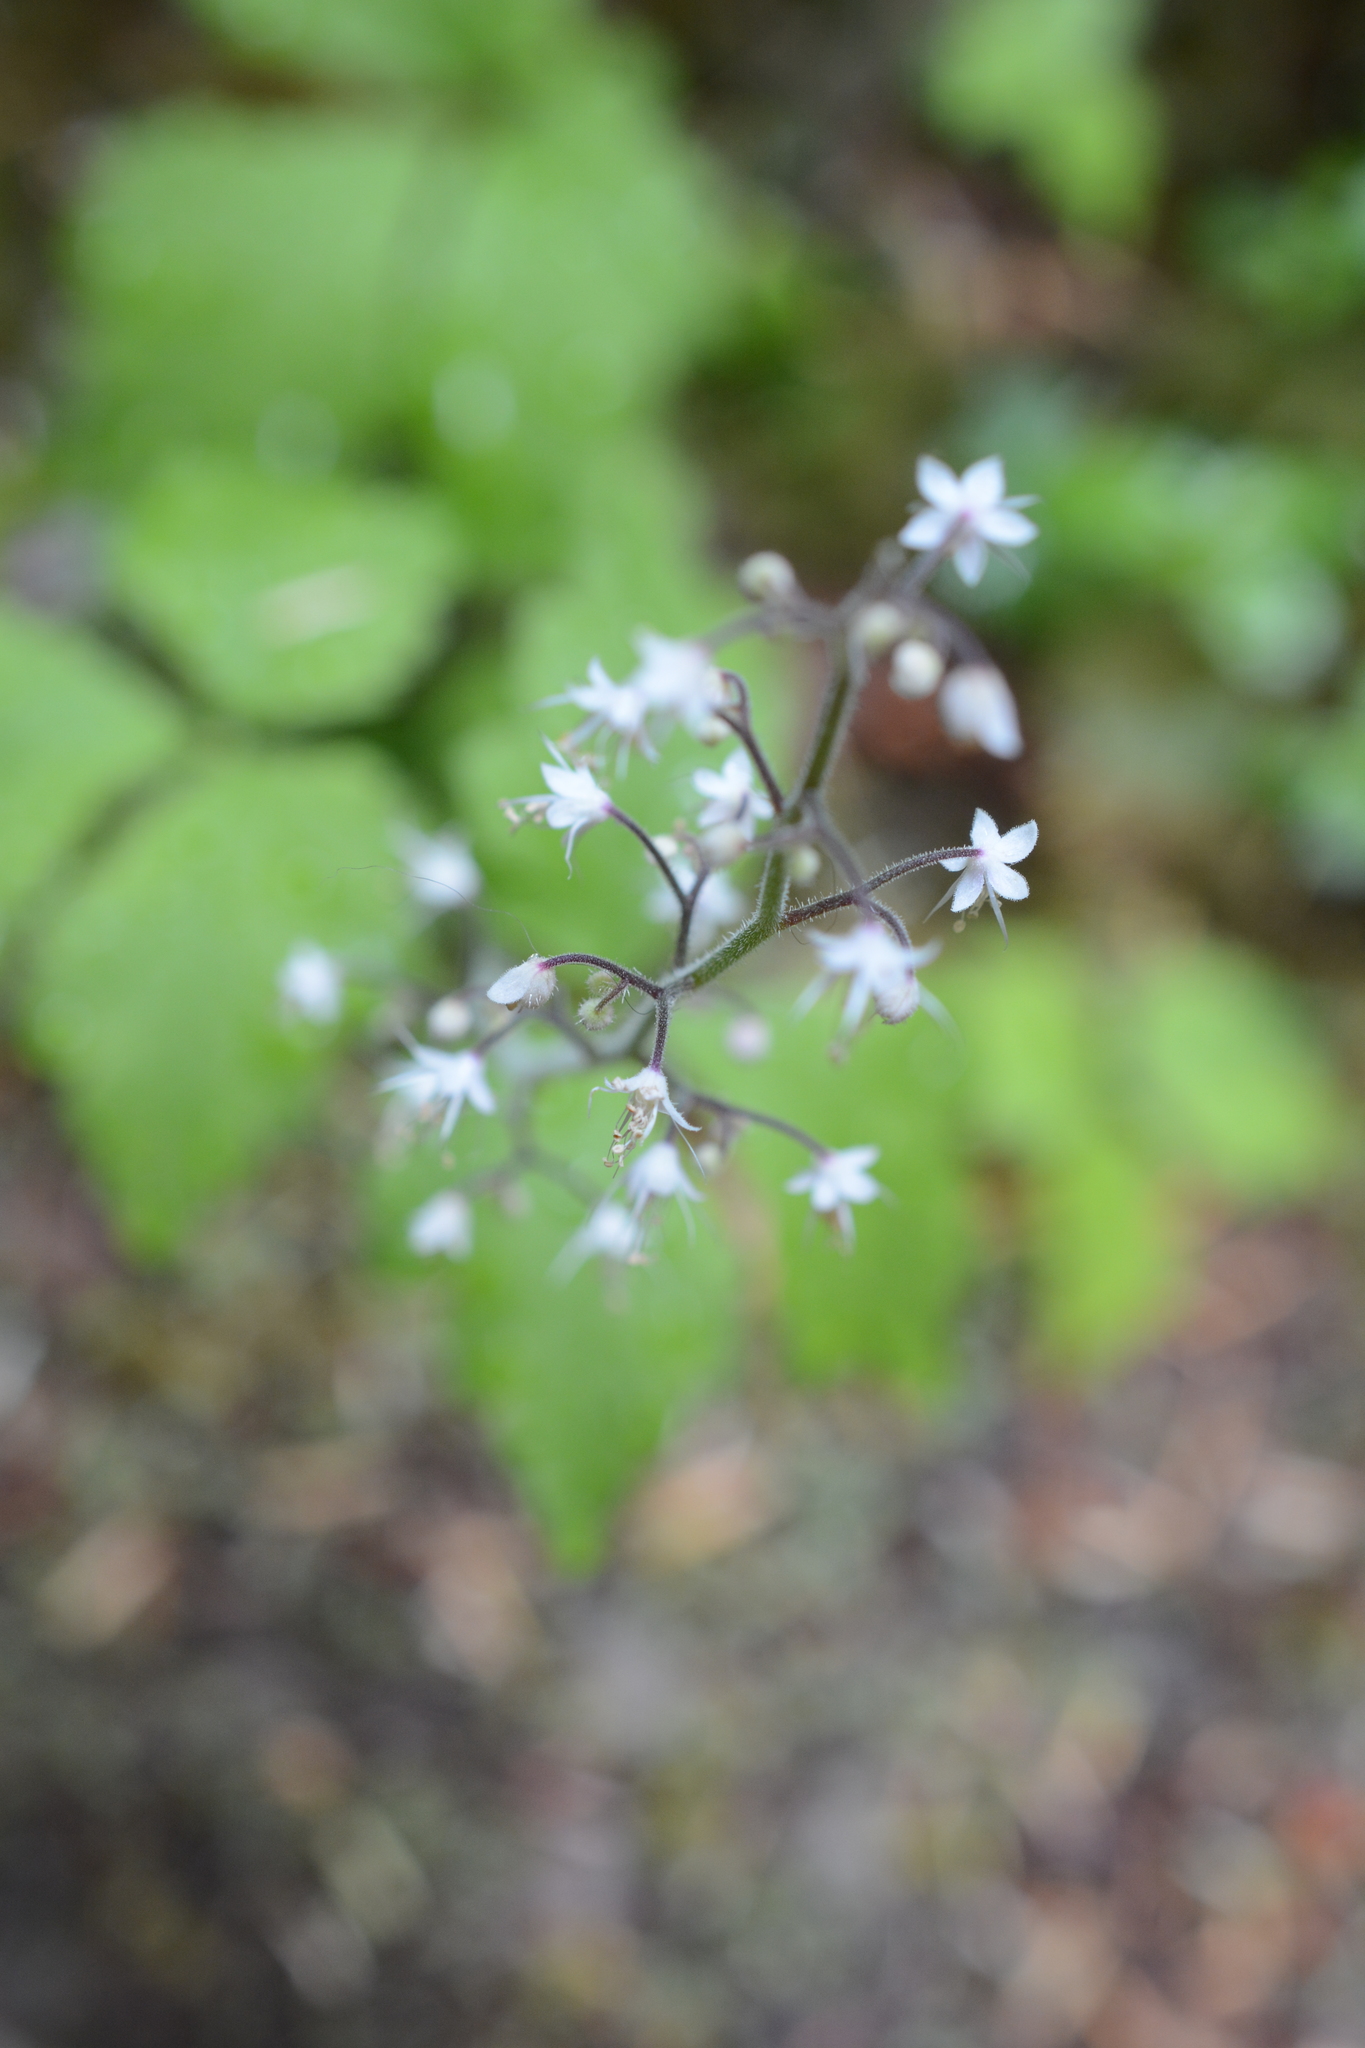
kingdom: Plantae
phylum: Tracheophyta
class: Magnoliopsida
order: Saxifragales
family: Saxifragaceae
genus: Tiarella
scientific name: Tiarella trifoliata
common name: Sugar-scoop
